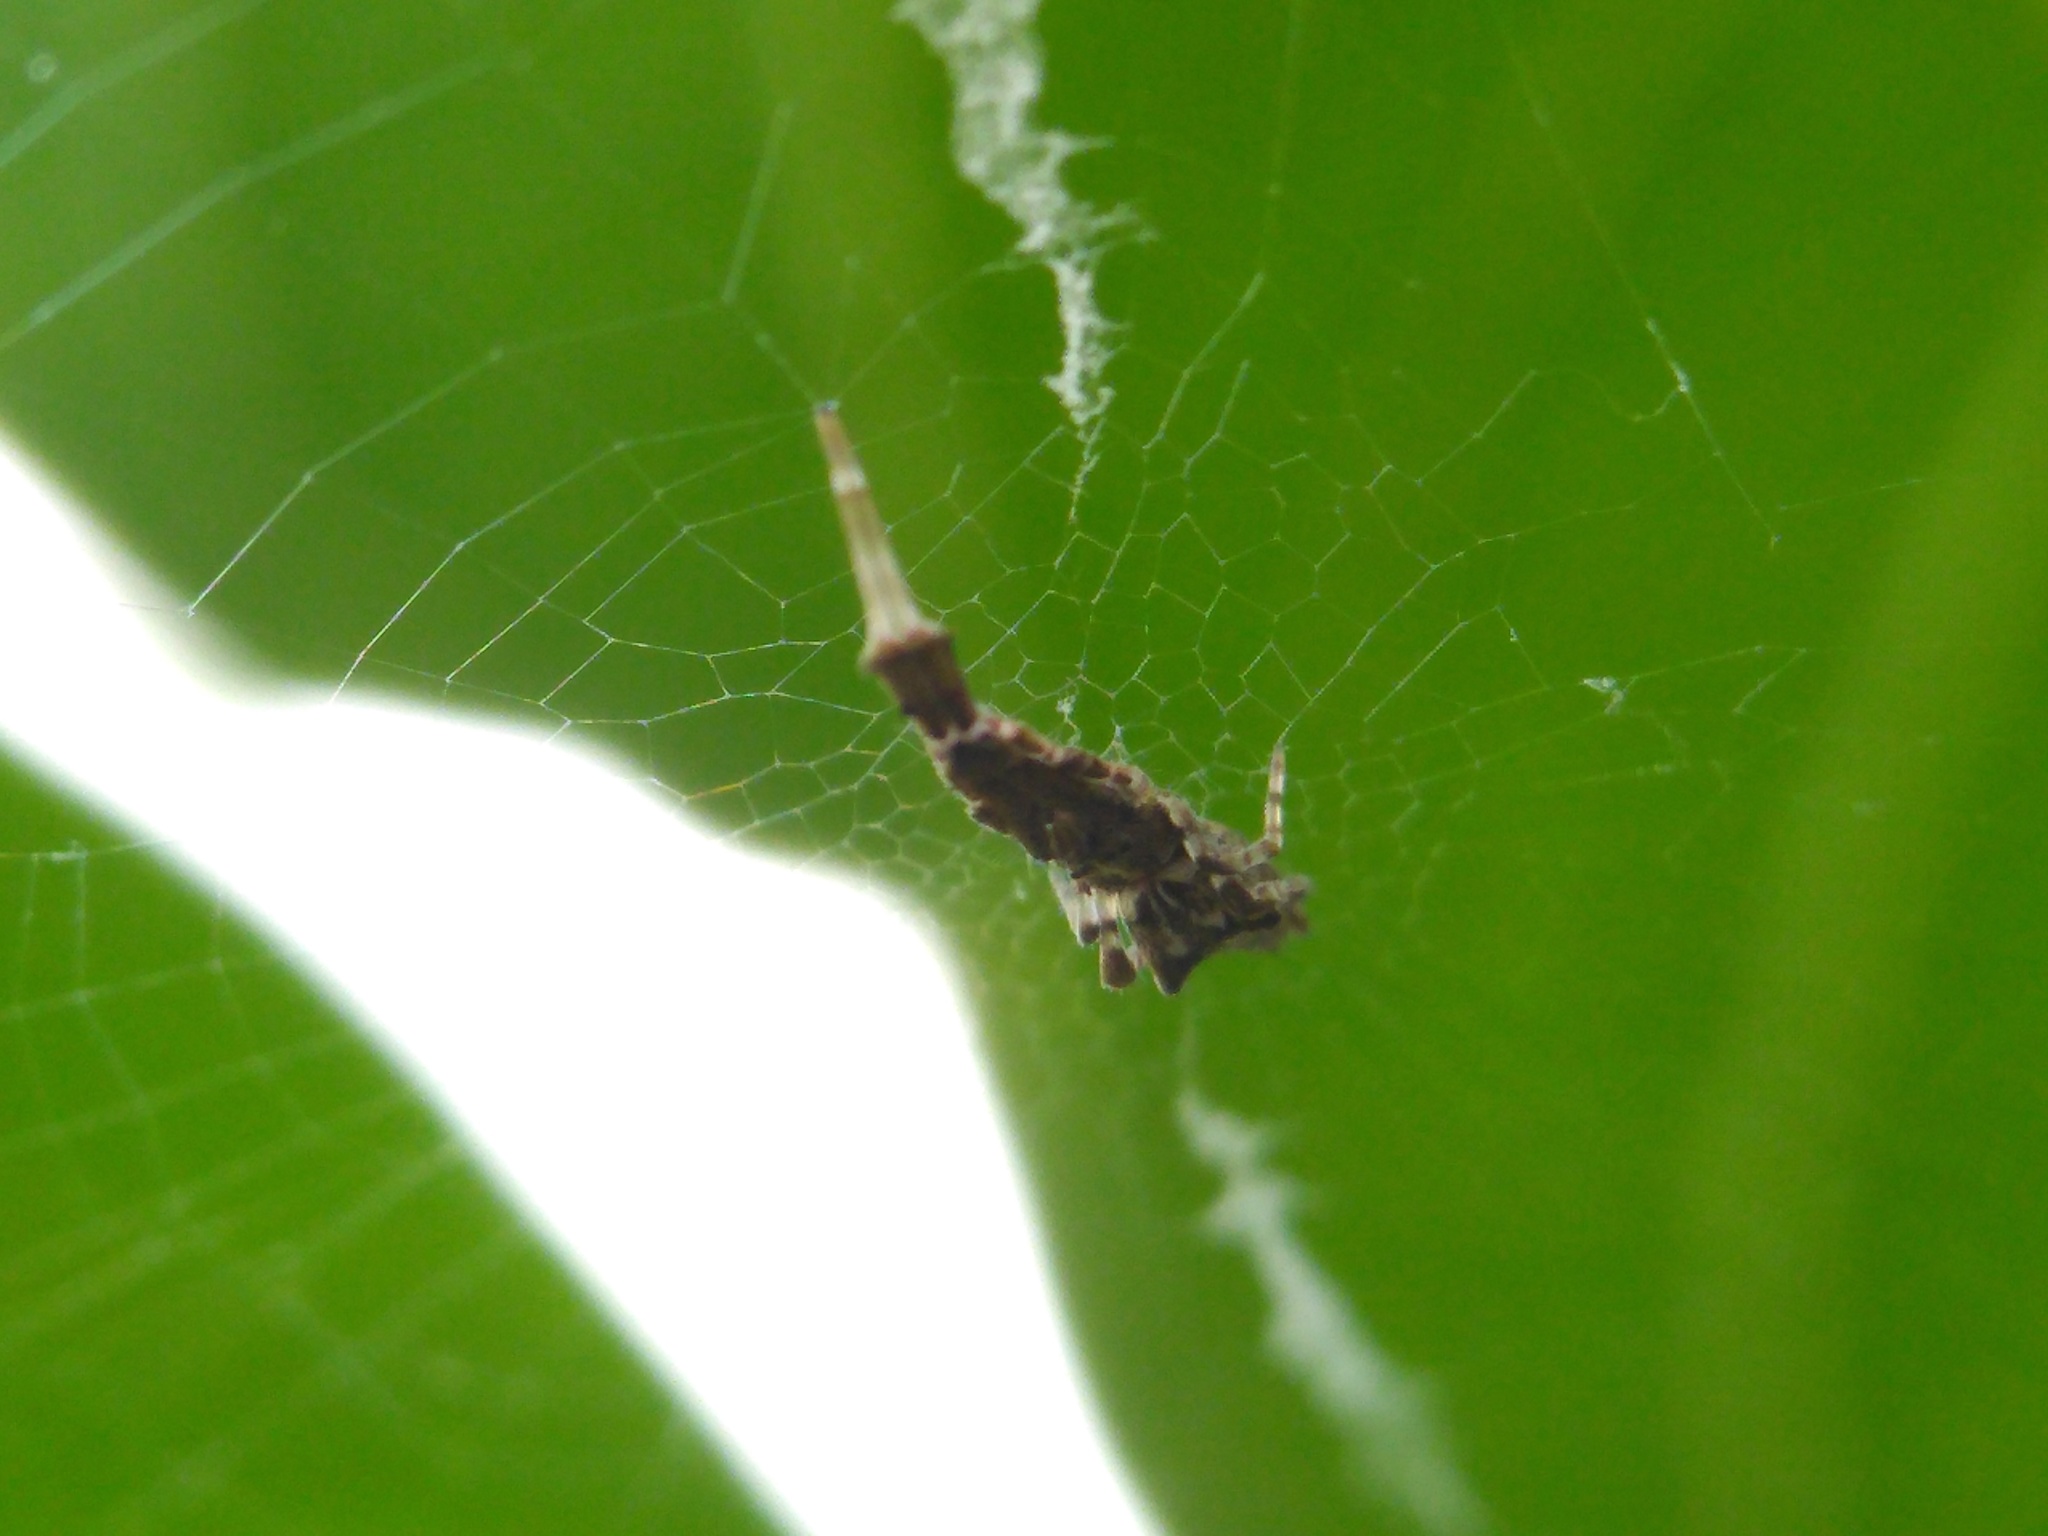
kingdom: Animalia
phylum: Arthropoda
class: Arachnida
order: Araneae
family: Uloboridae
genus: Uloborus
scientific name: Uloborus glomosus
